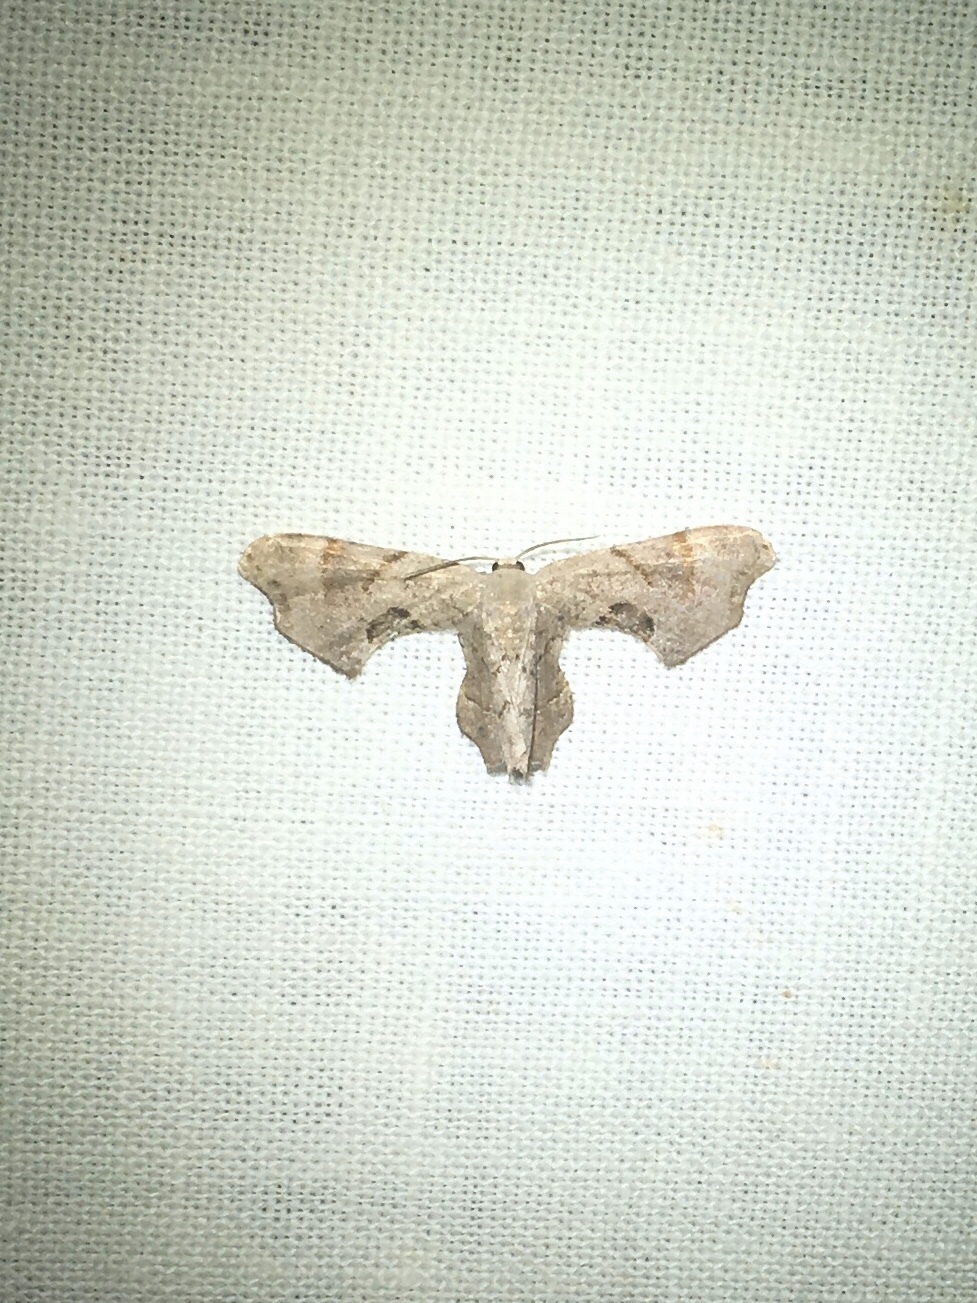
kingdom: Animalia
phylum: Arthropoda
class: Insecta
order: Lepidoptera
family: Uraniidae
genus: Epiplema
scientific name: Epiplema Calledapteryx dryopterata
